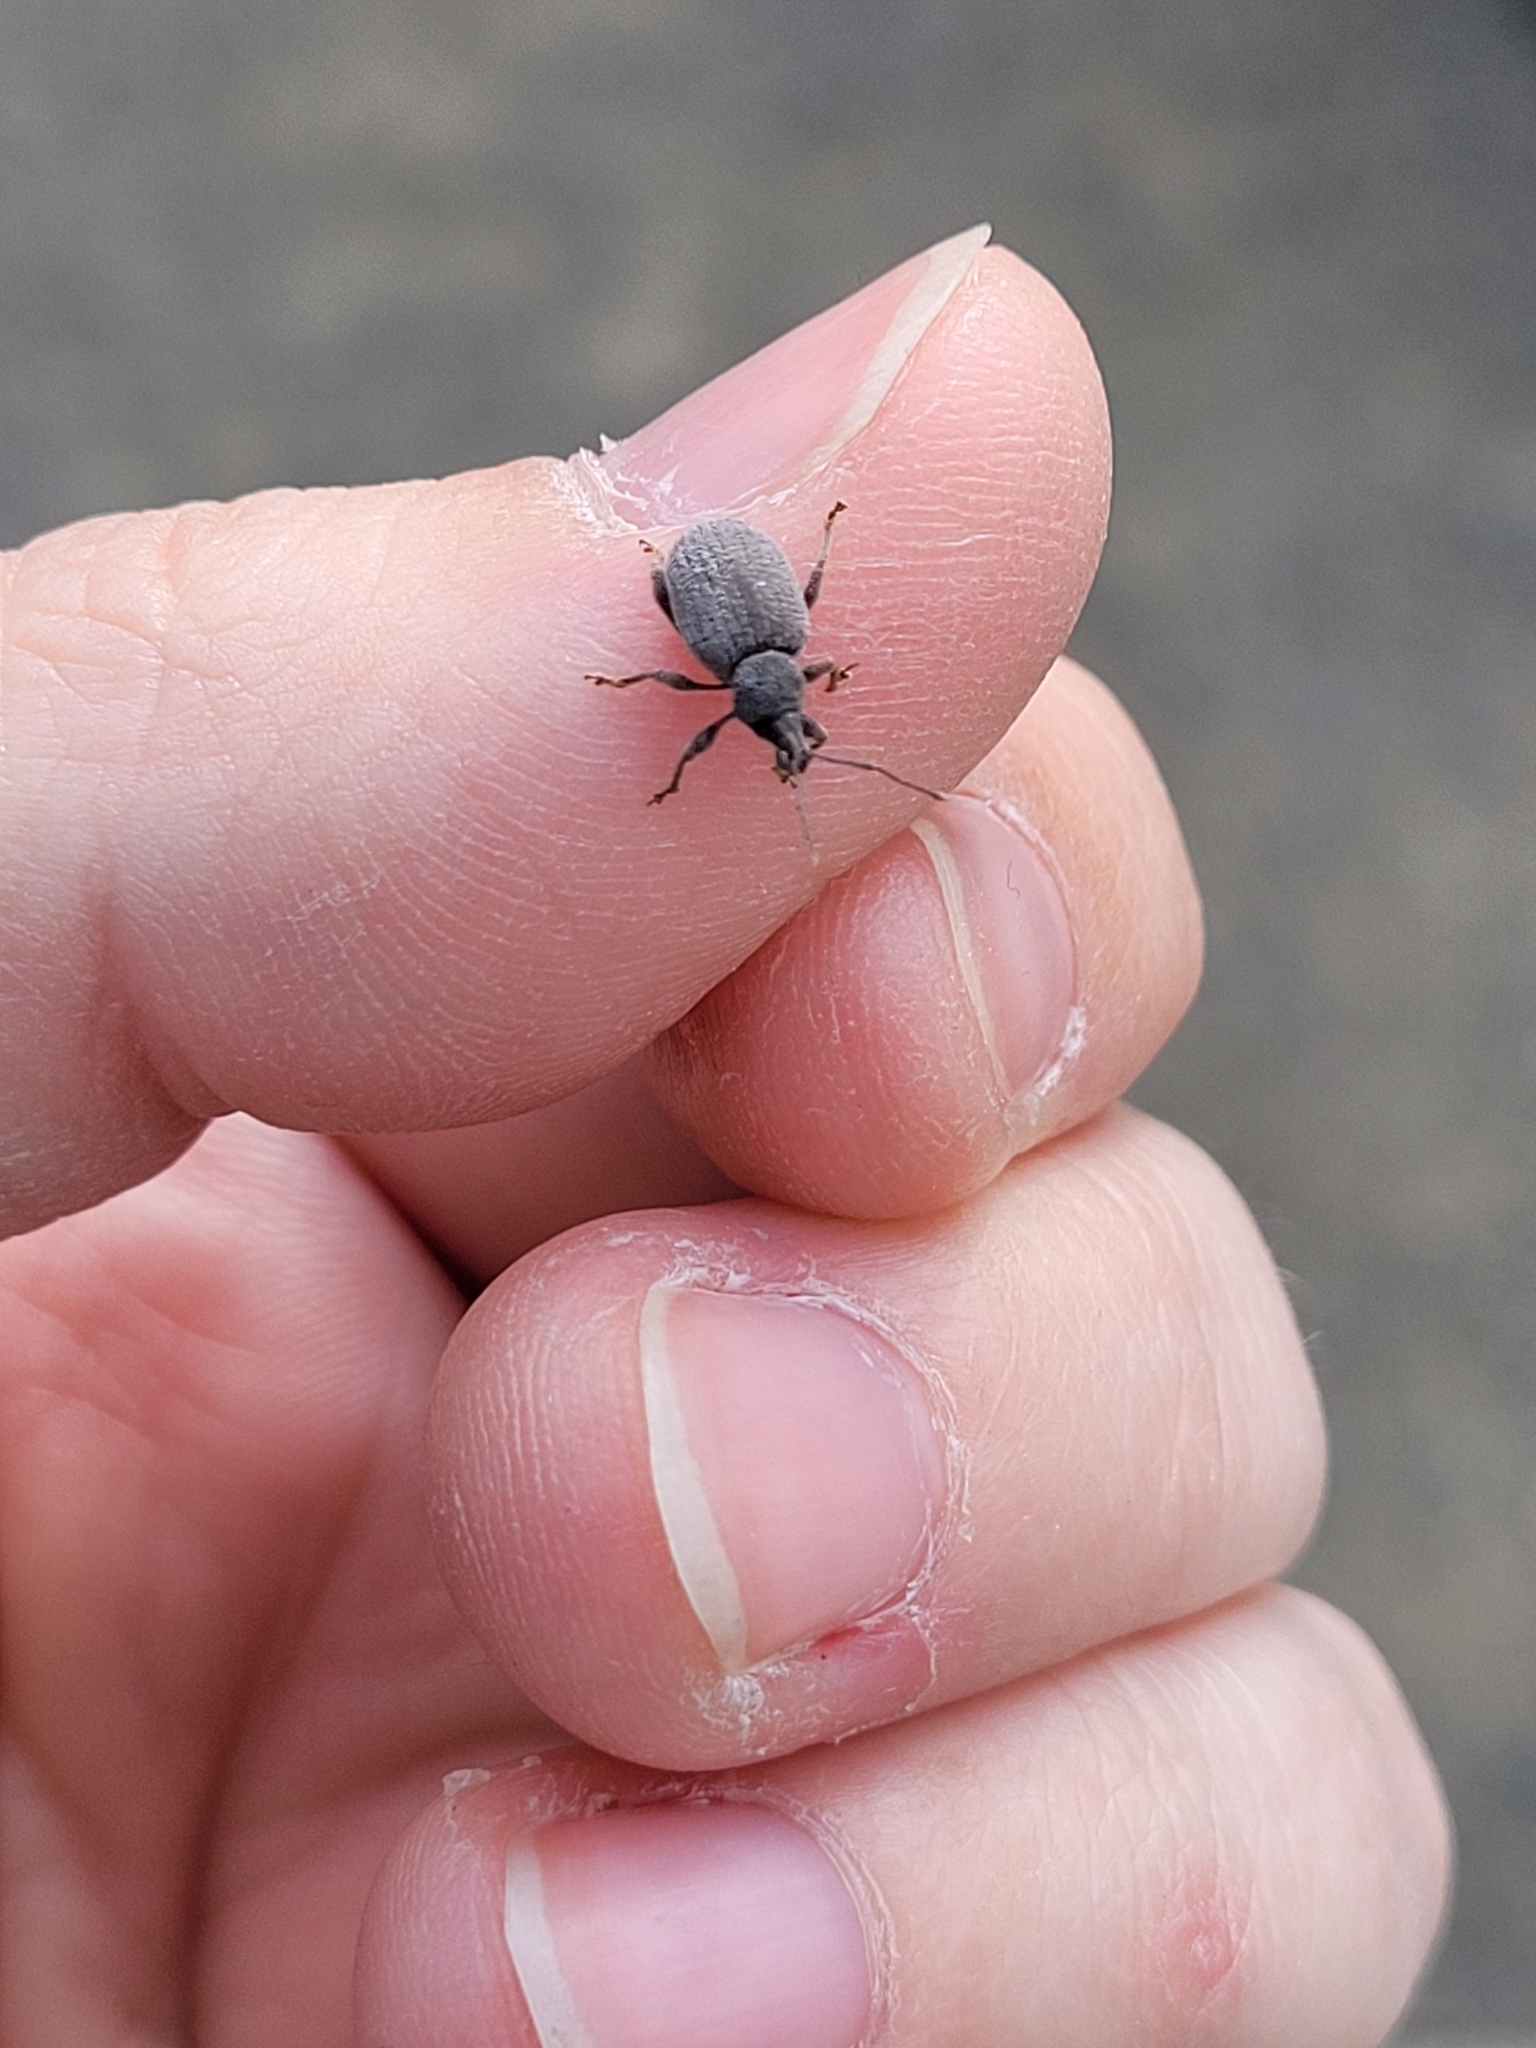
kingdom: Animalia
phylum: Arthropoda
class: Insecta
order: Coleoptera
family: Curculionidae
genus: Otiorhynchus
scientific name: Otiorhynchus rugosostriatus
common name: Weevil
